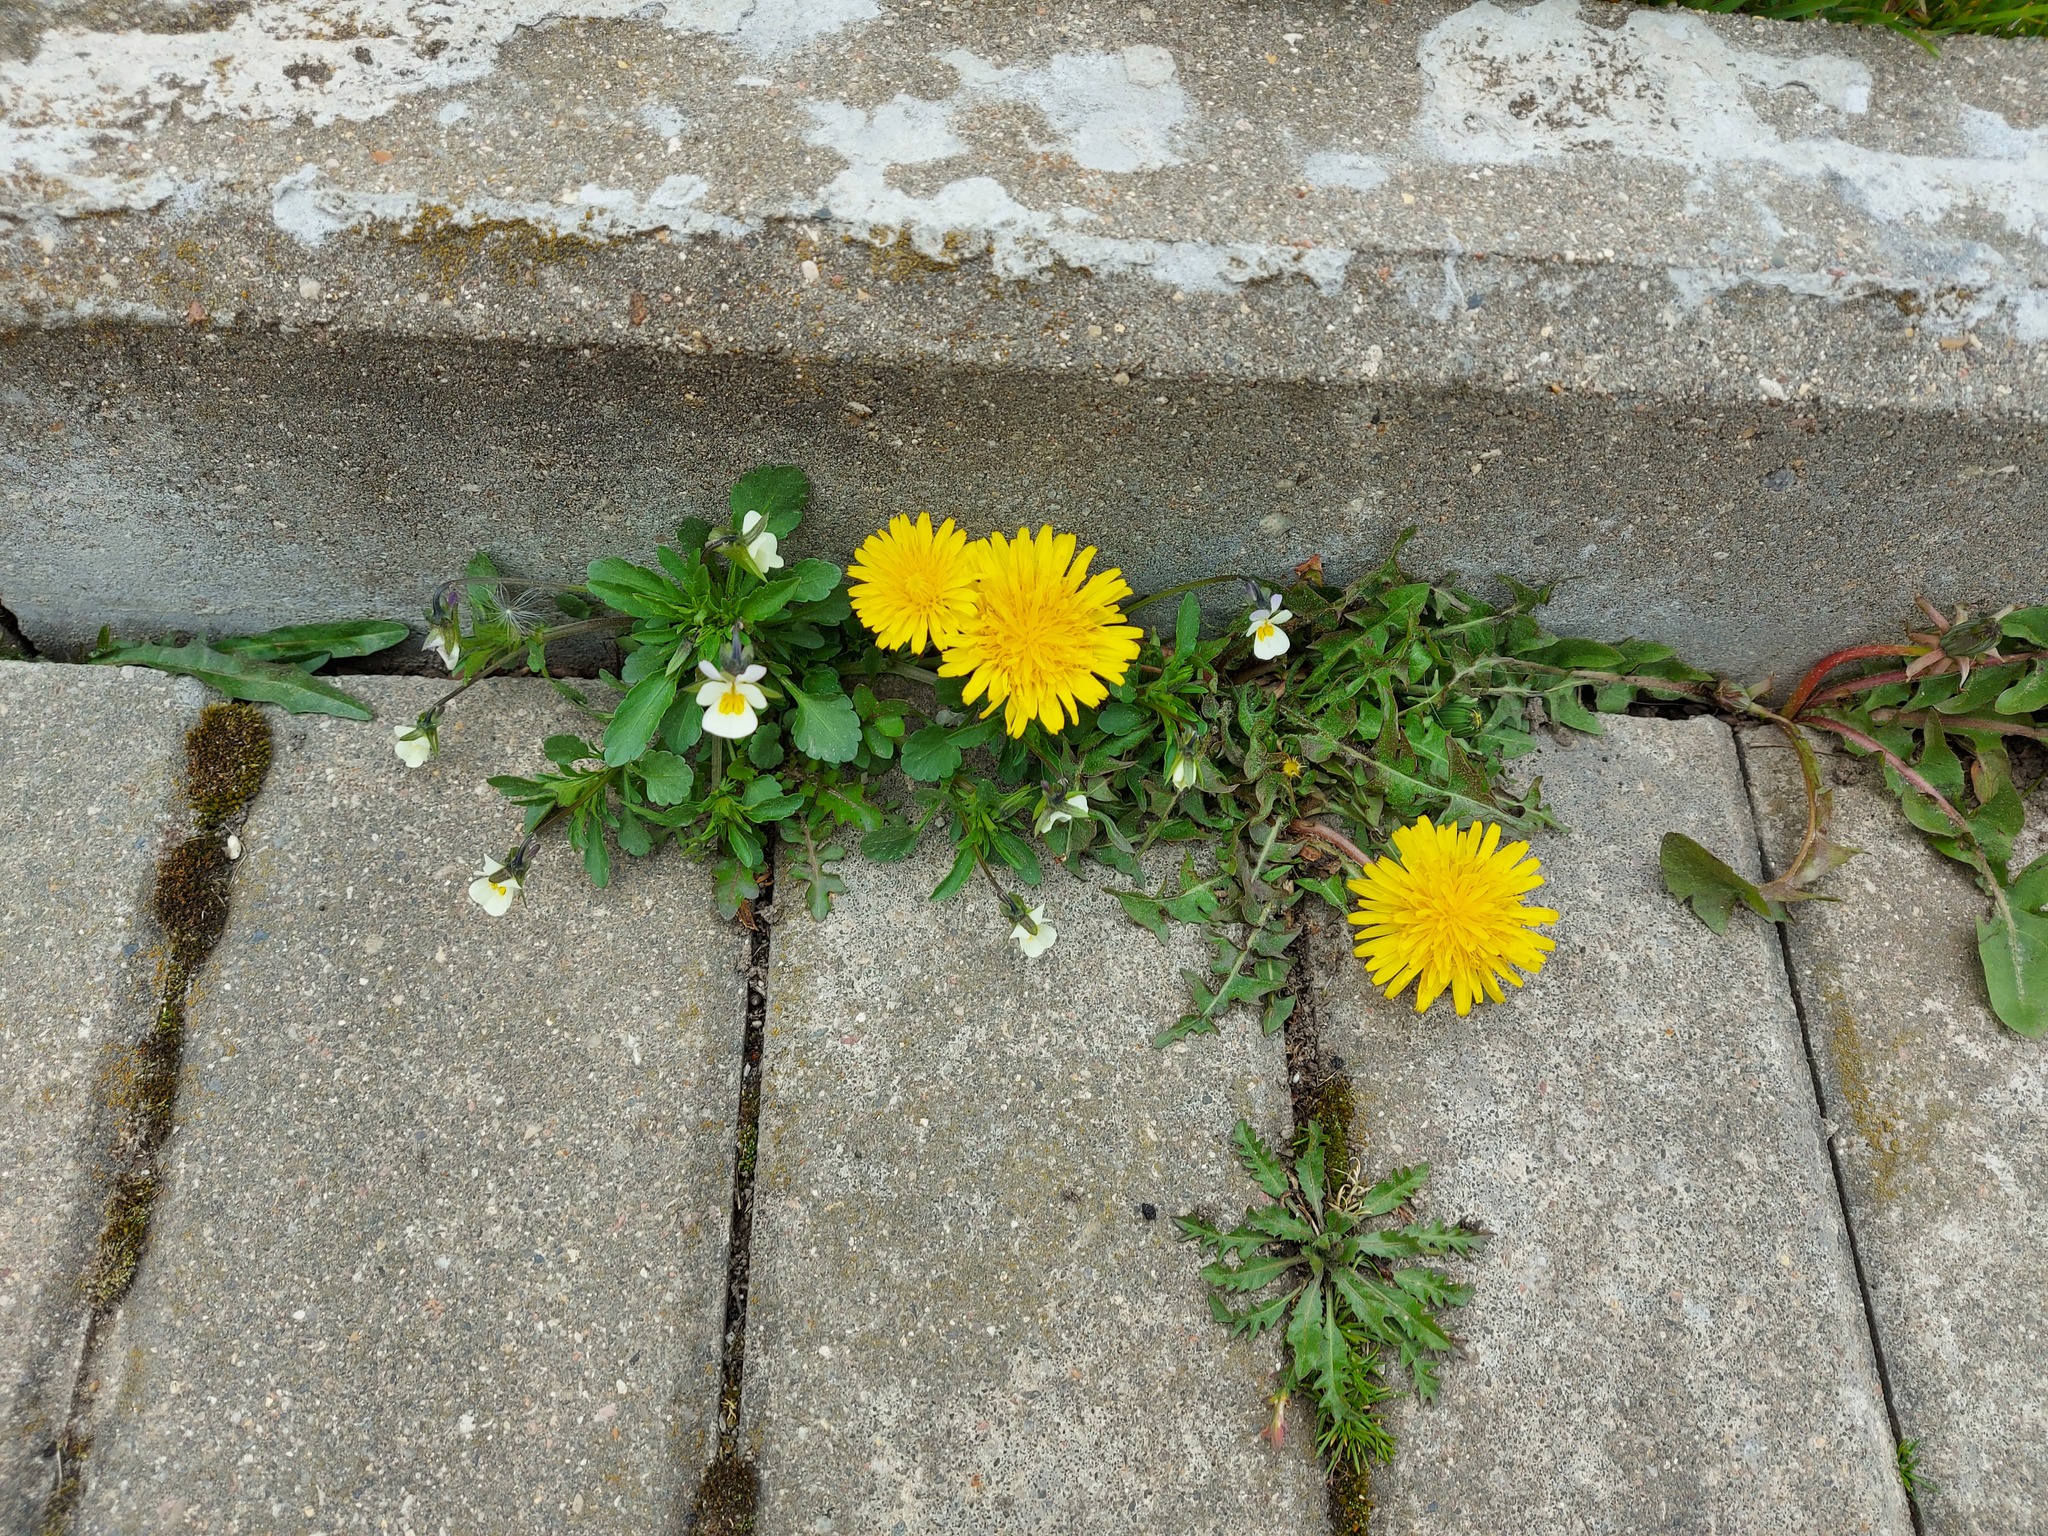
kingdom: Plantae
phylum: Tracheophyta
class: Magnoliopsida
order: Malpighiales
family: Violaceae
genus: Viola
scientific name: Viola arvensis
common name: Field pansy
